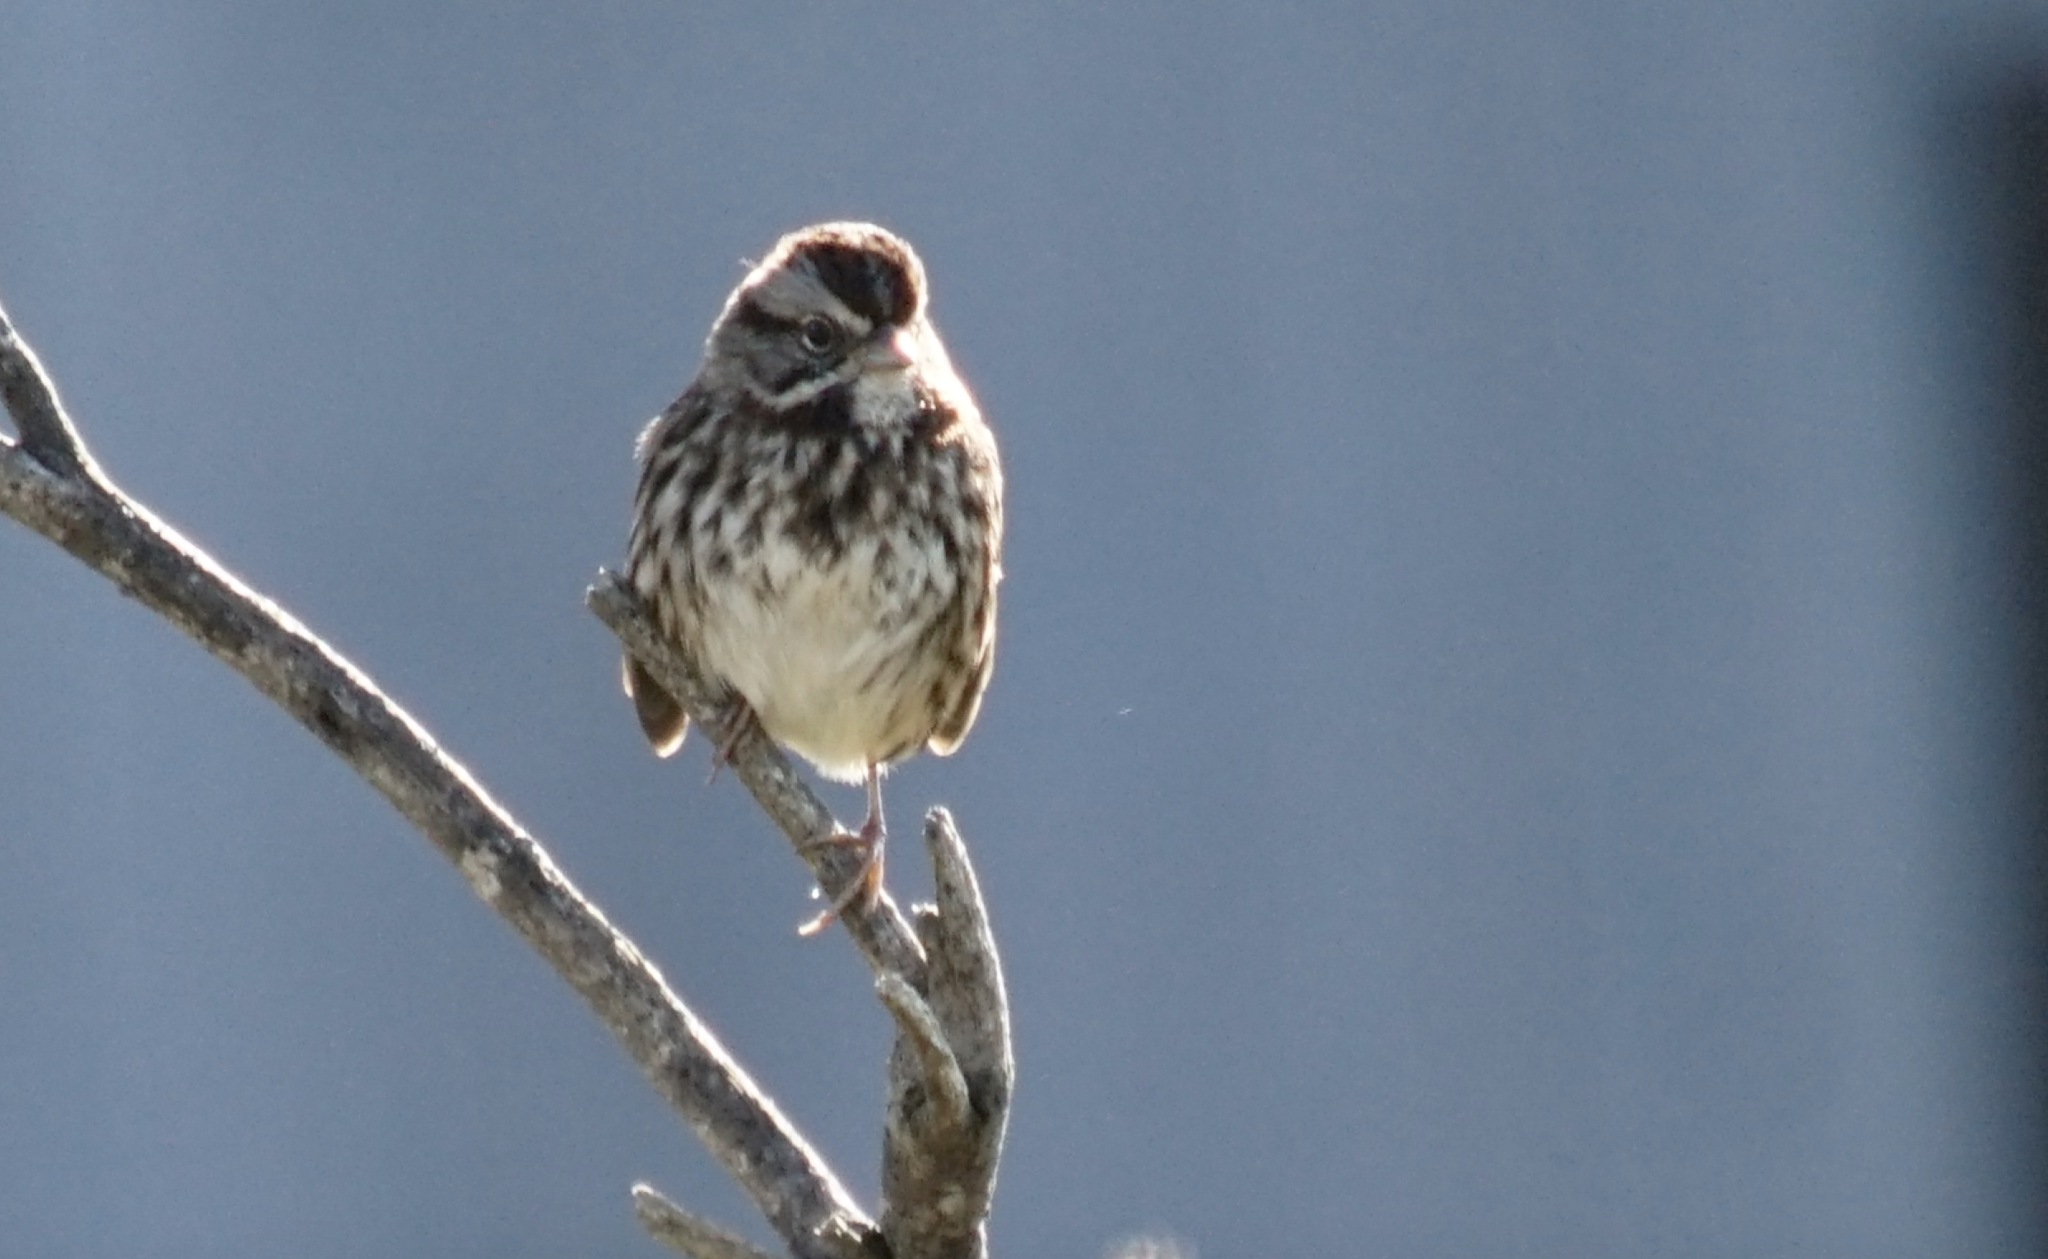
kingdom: Animalia
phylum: Chordata
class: Aves
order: Passeriformes
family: Passerellidae
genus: Melospiza
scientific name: Melospiza melodia
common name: Song sparrow
